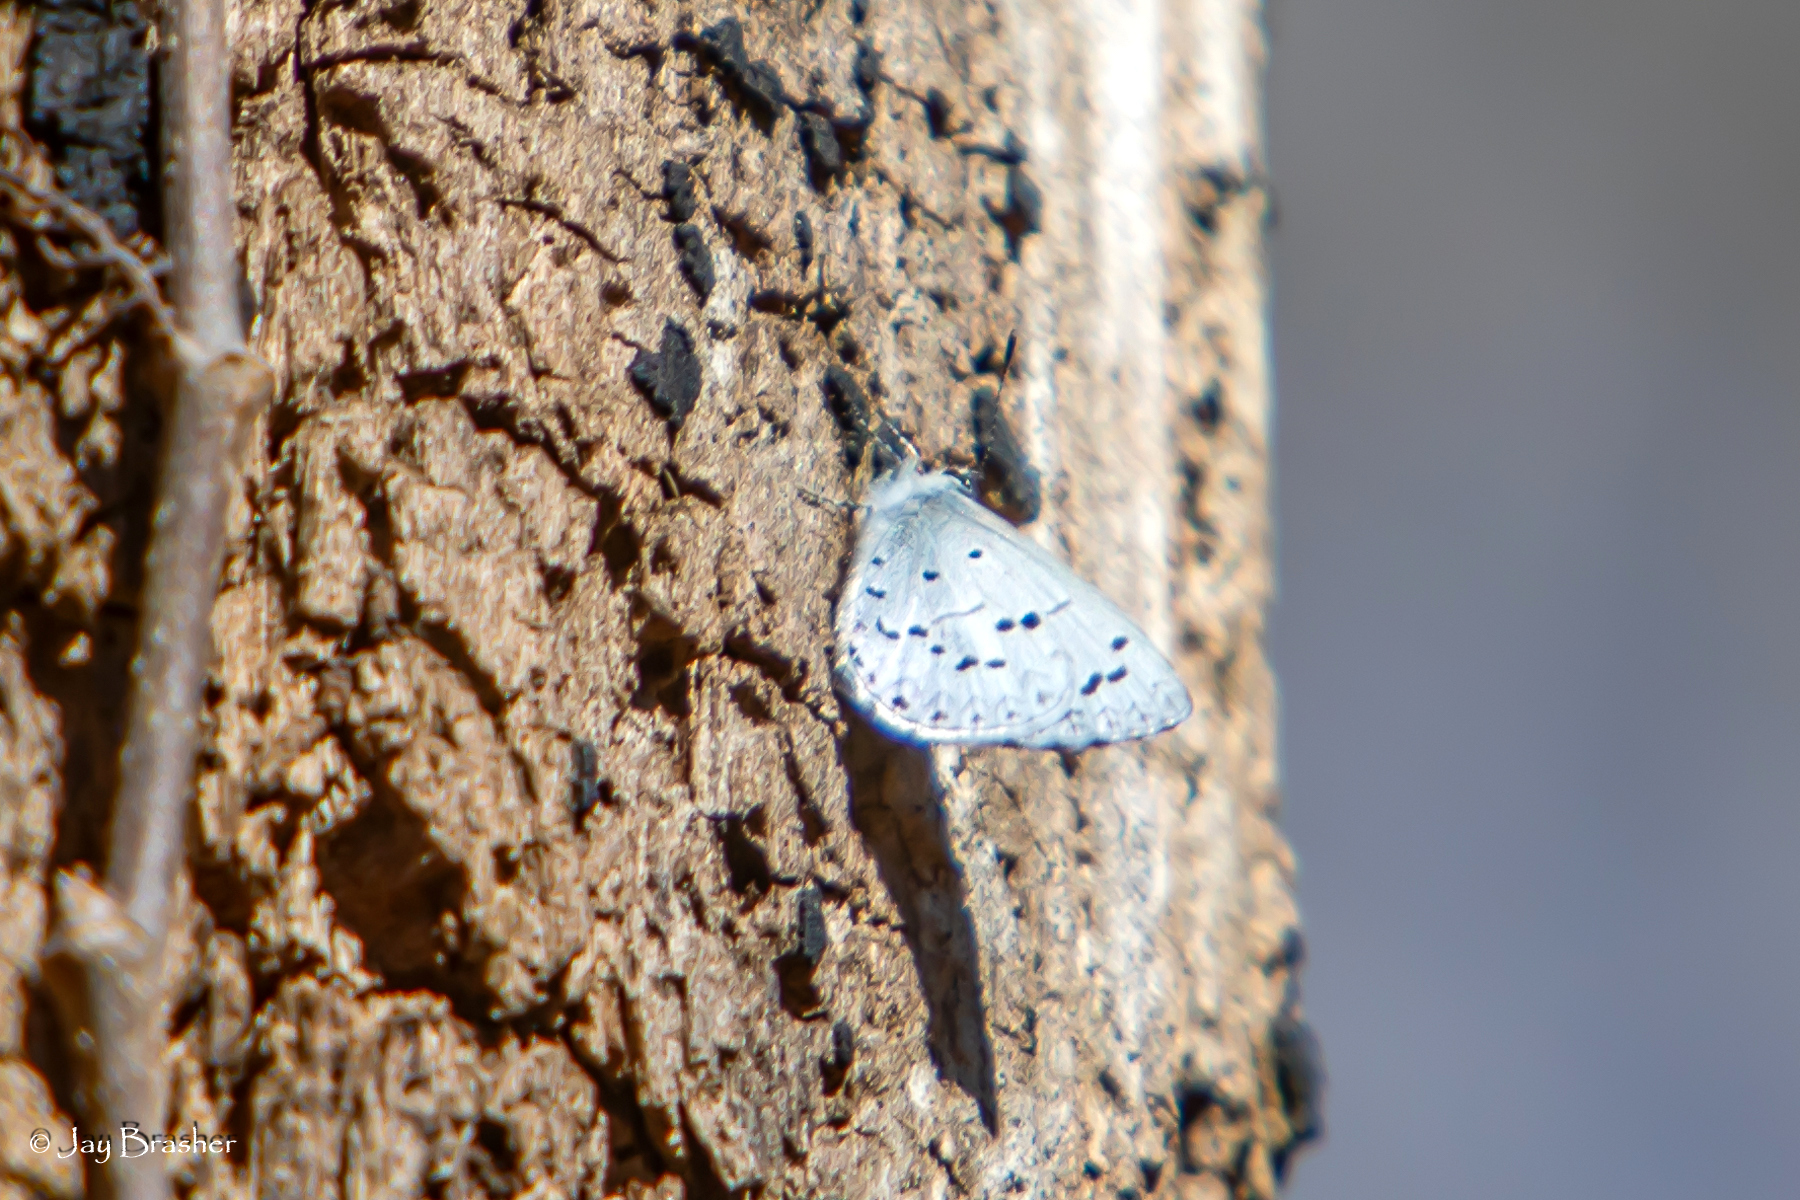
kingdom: Animalia
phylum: Arthropoda
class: Insecta
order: Lepidoptera
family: Lycaenidae
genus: Celastrina
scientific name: Celastrina ladon
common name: Spring azure
